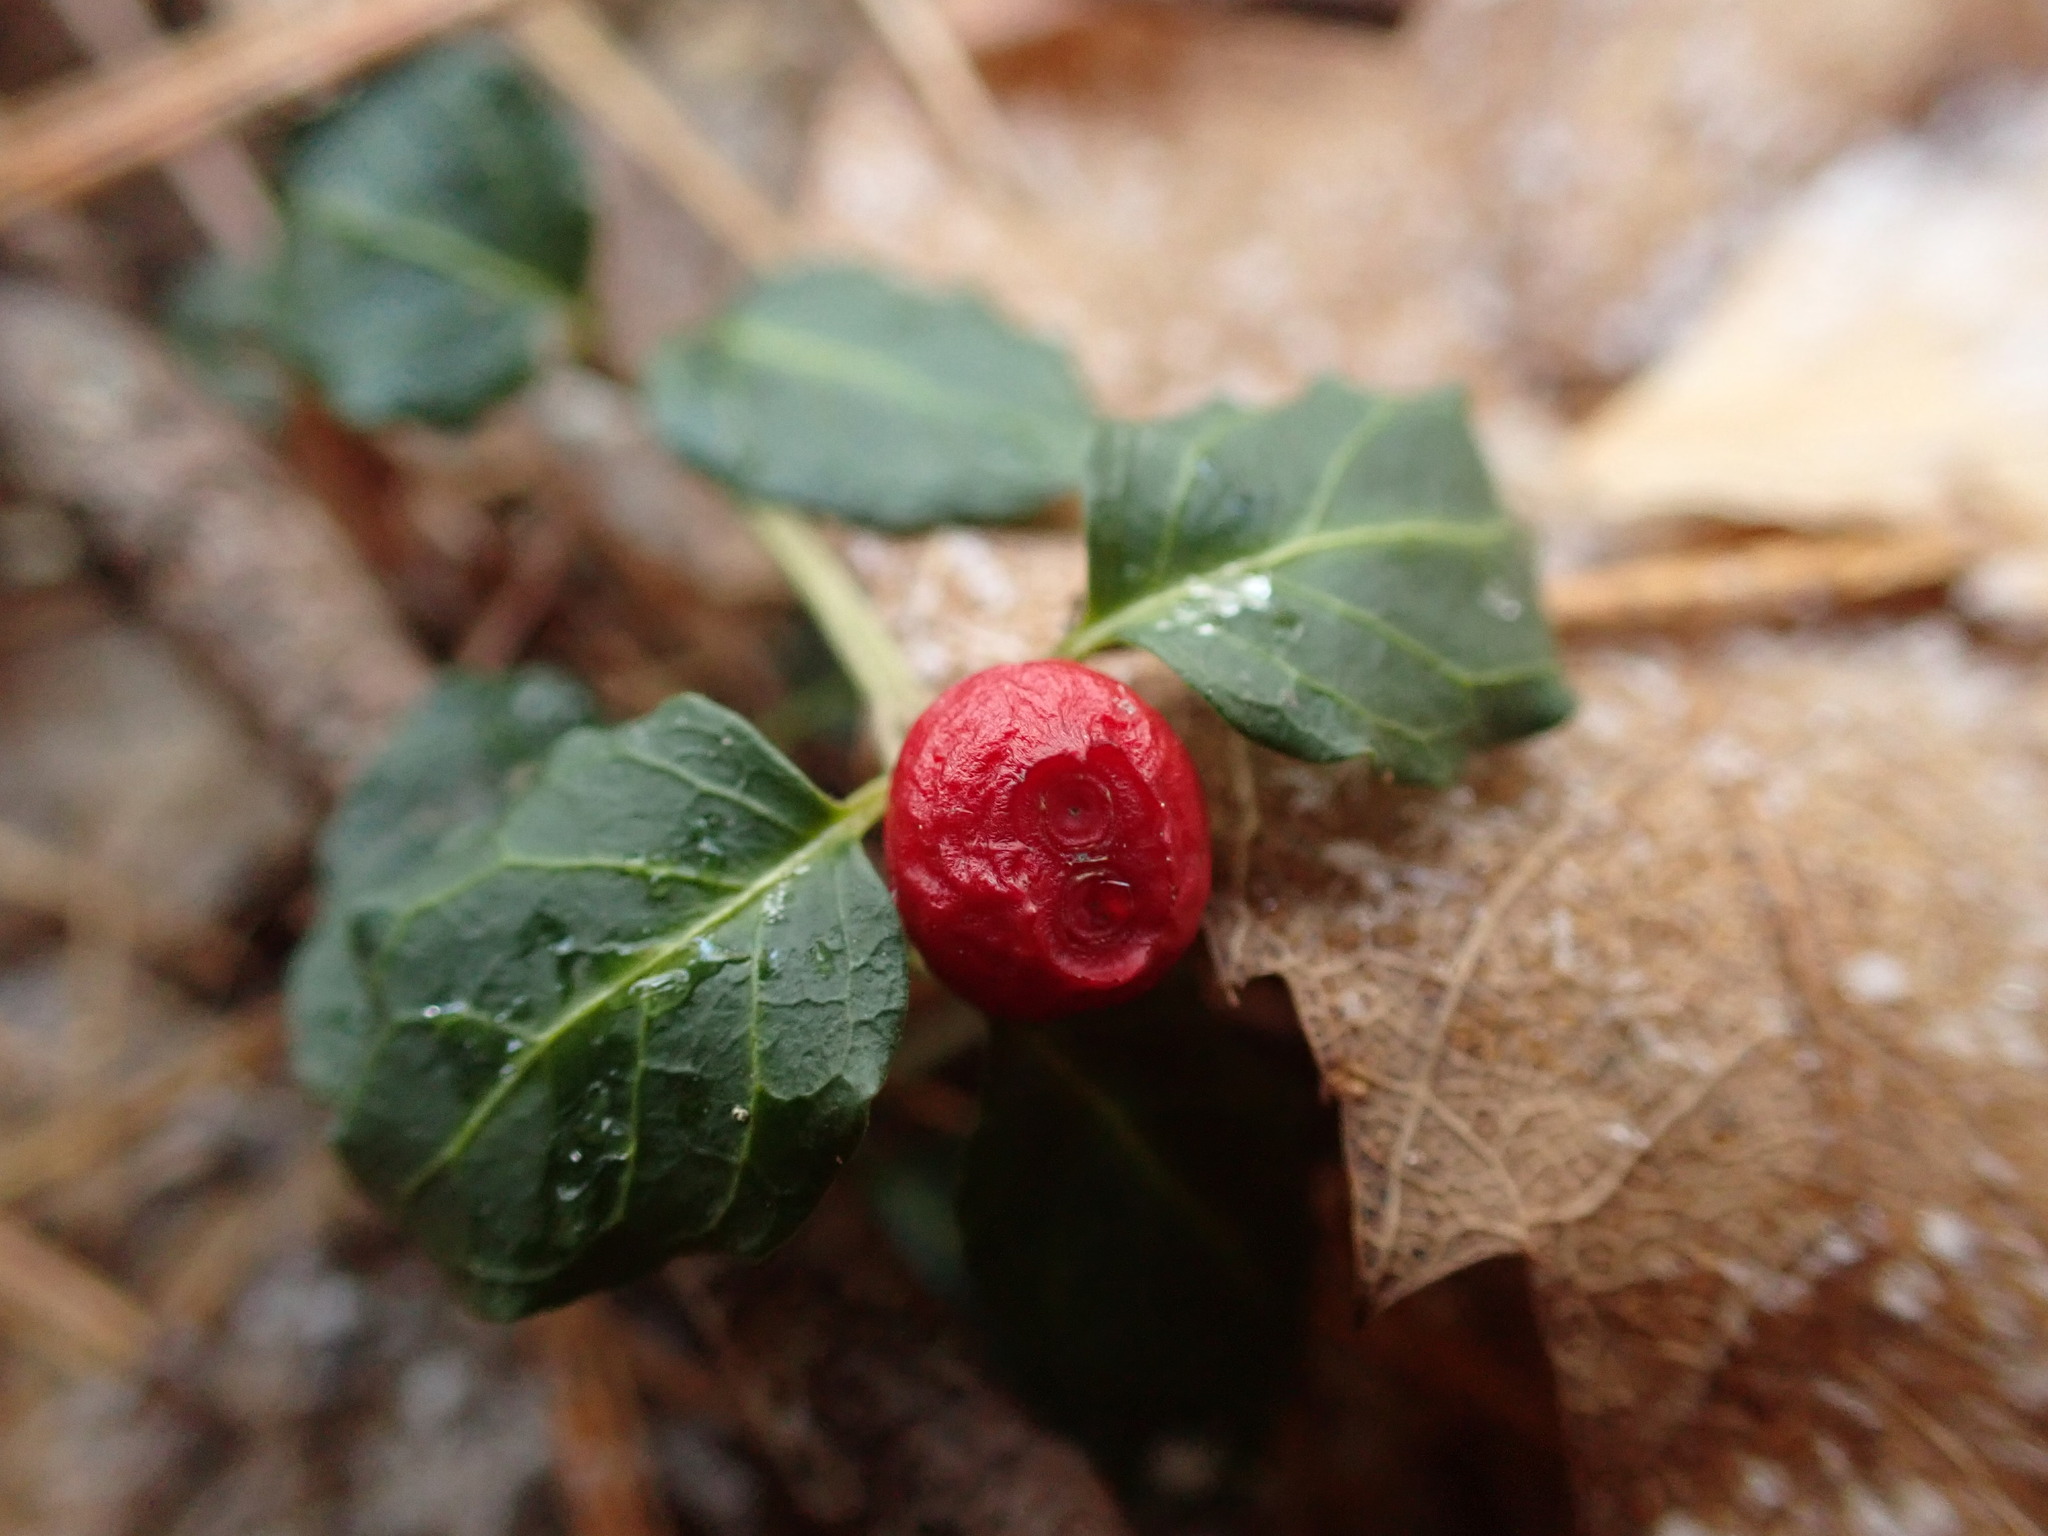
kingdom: Plantae
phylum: Tracheophyta
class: Magnoliopsida
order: Gentianales
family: Rubiaceae
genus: Mitchella
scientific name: Mitchella repens
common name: Partridge-berry
